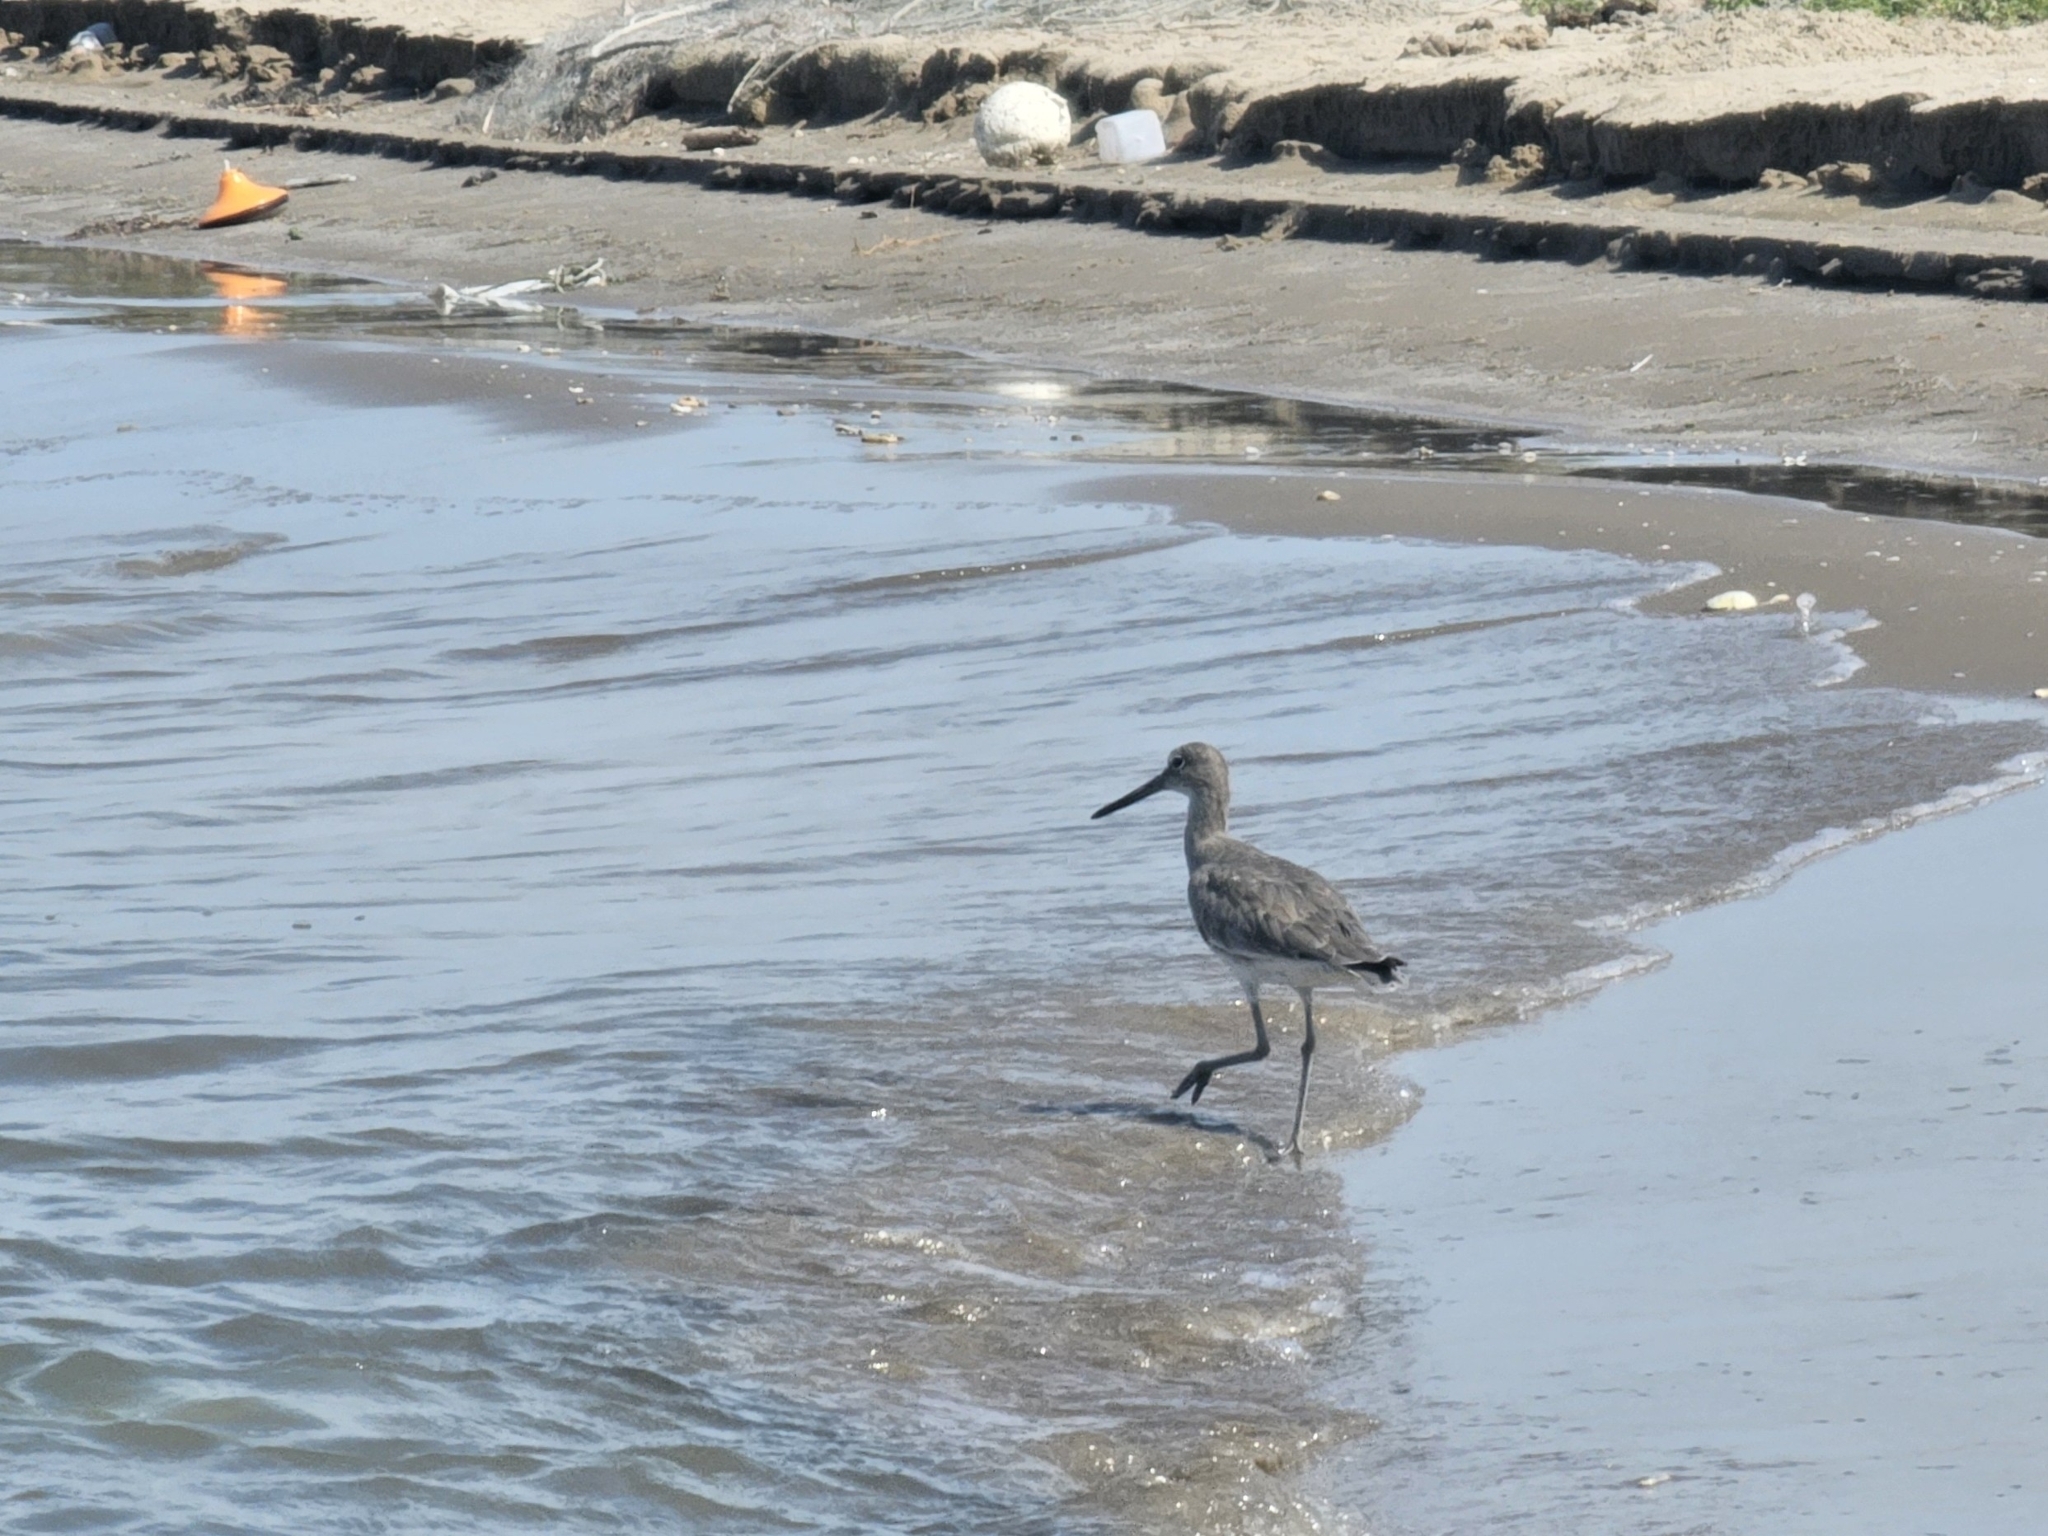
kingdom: Animalia
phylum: Chordata
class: Aves
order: Charadriiformes
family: Scolopacidae
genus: Tringa
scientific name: Tringa semipalmata
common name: Willet
